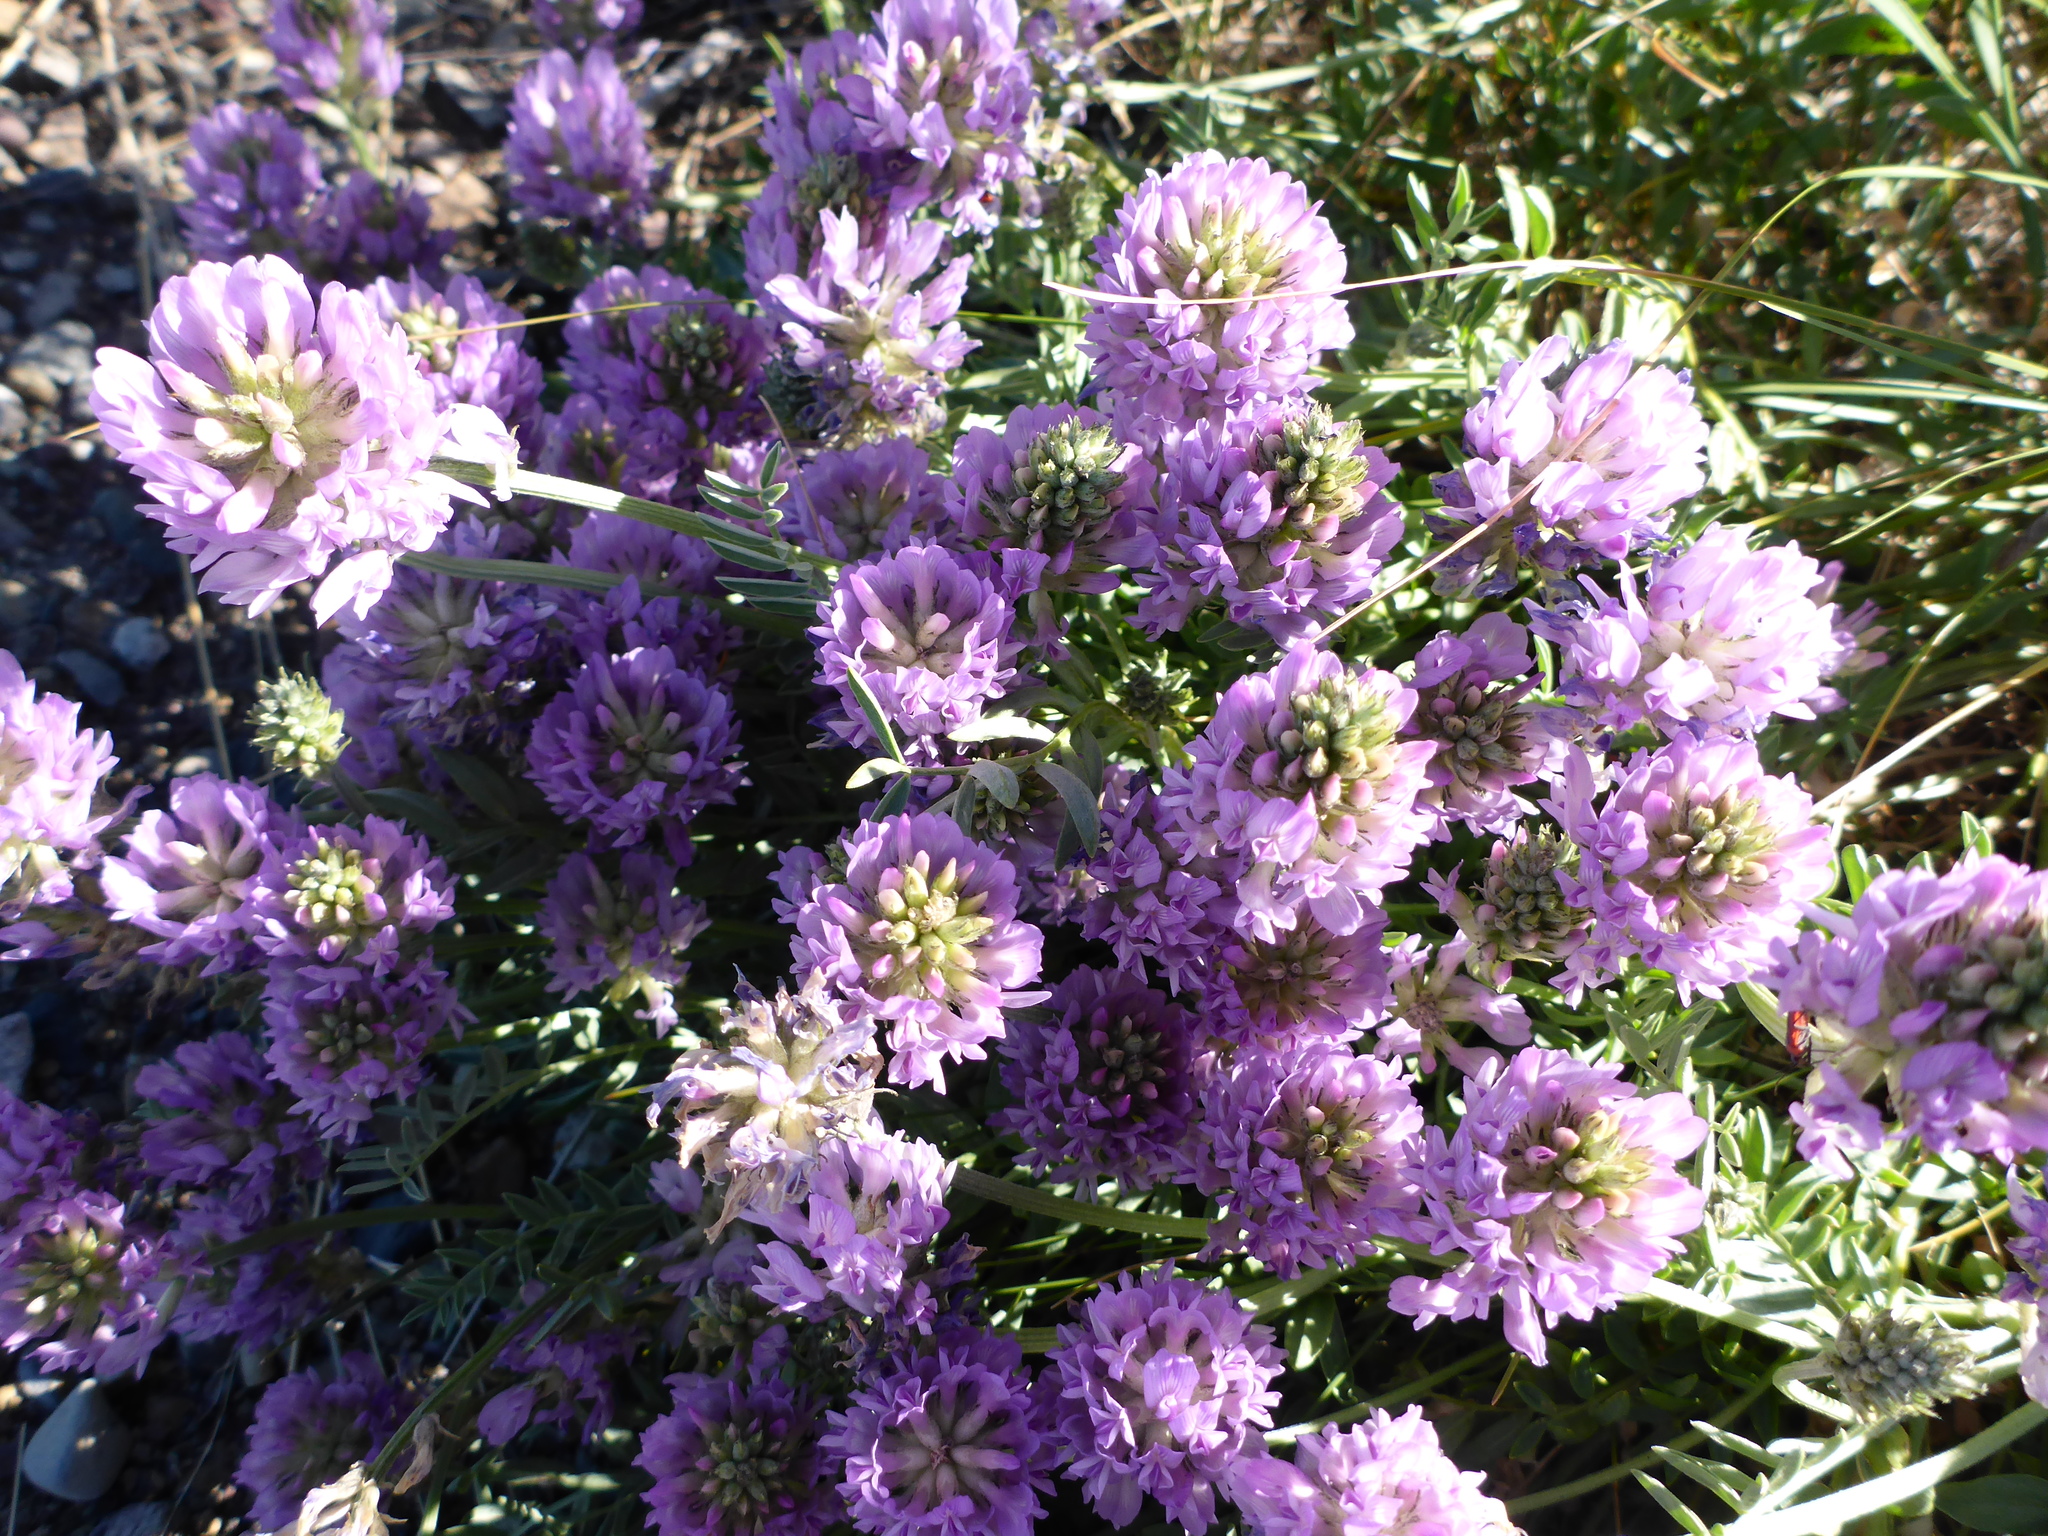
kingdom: Plantae
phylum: Tracheophyta
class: Magnoliopsida
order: Fabales
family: Fabaceae
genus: Astragalus
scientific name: Astragalus laxmannii
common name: Laxmann's milk-vetch
